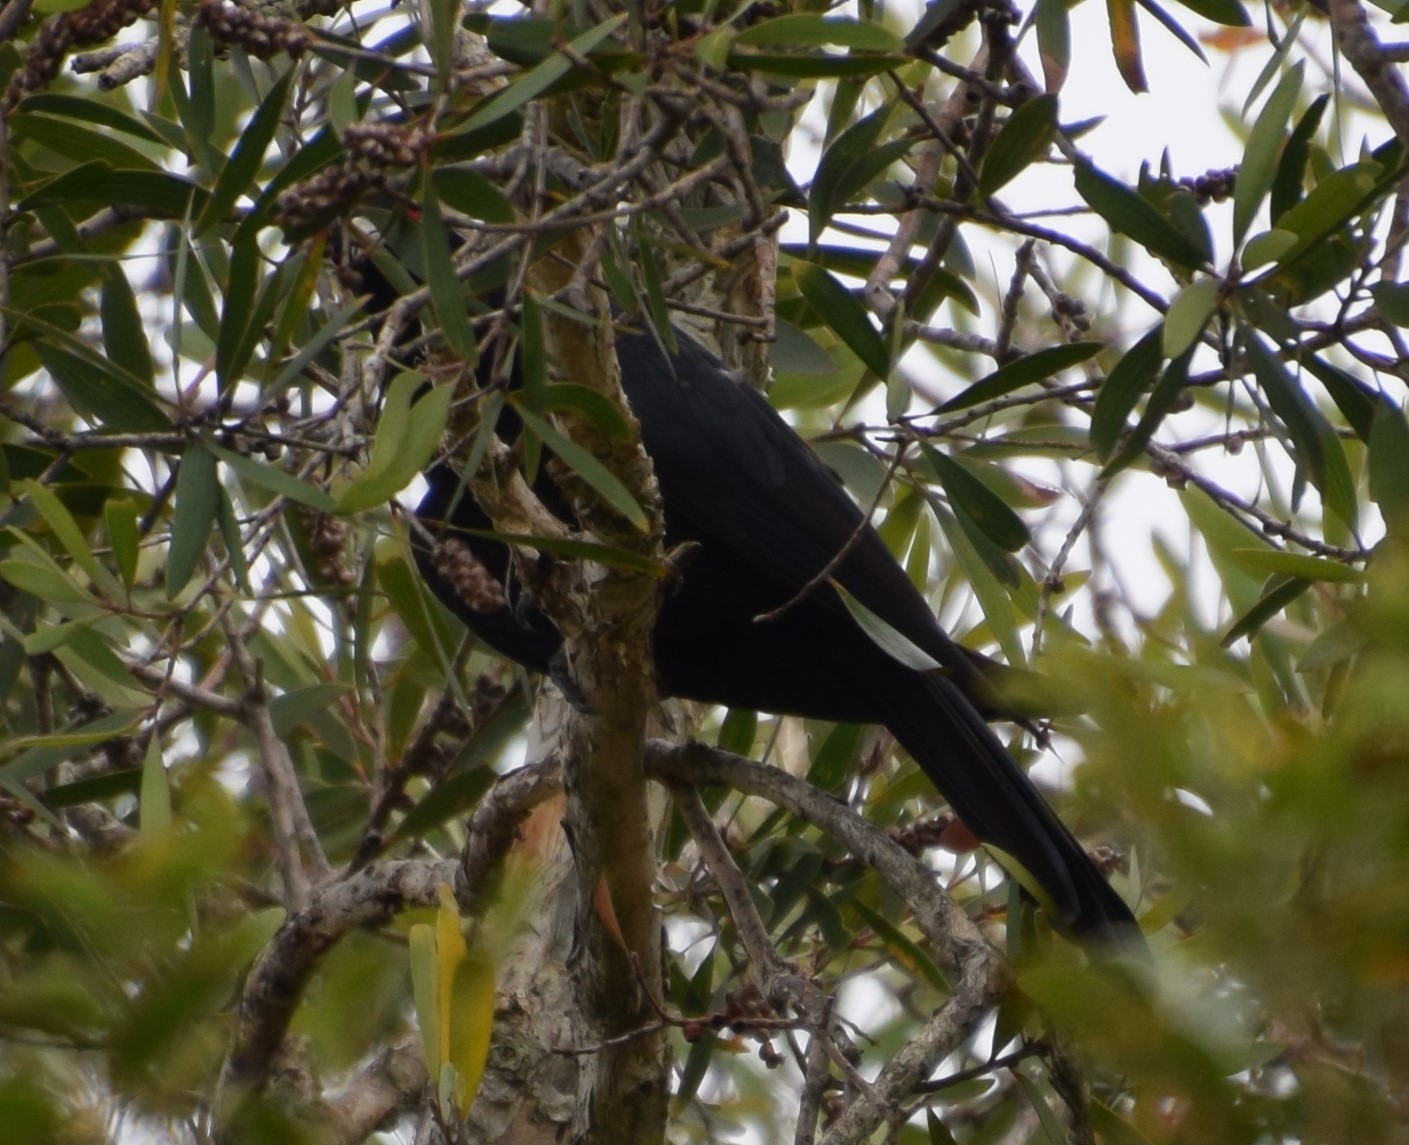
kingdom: Animalia
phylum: Chordata
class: Aves
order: Cuculiformes
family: Cuculidae
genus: Eudynamys
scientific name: Eudynamys orientalis
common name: Pacific koel
